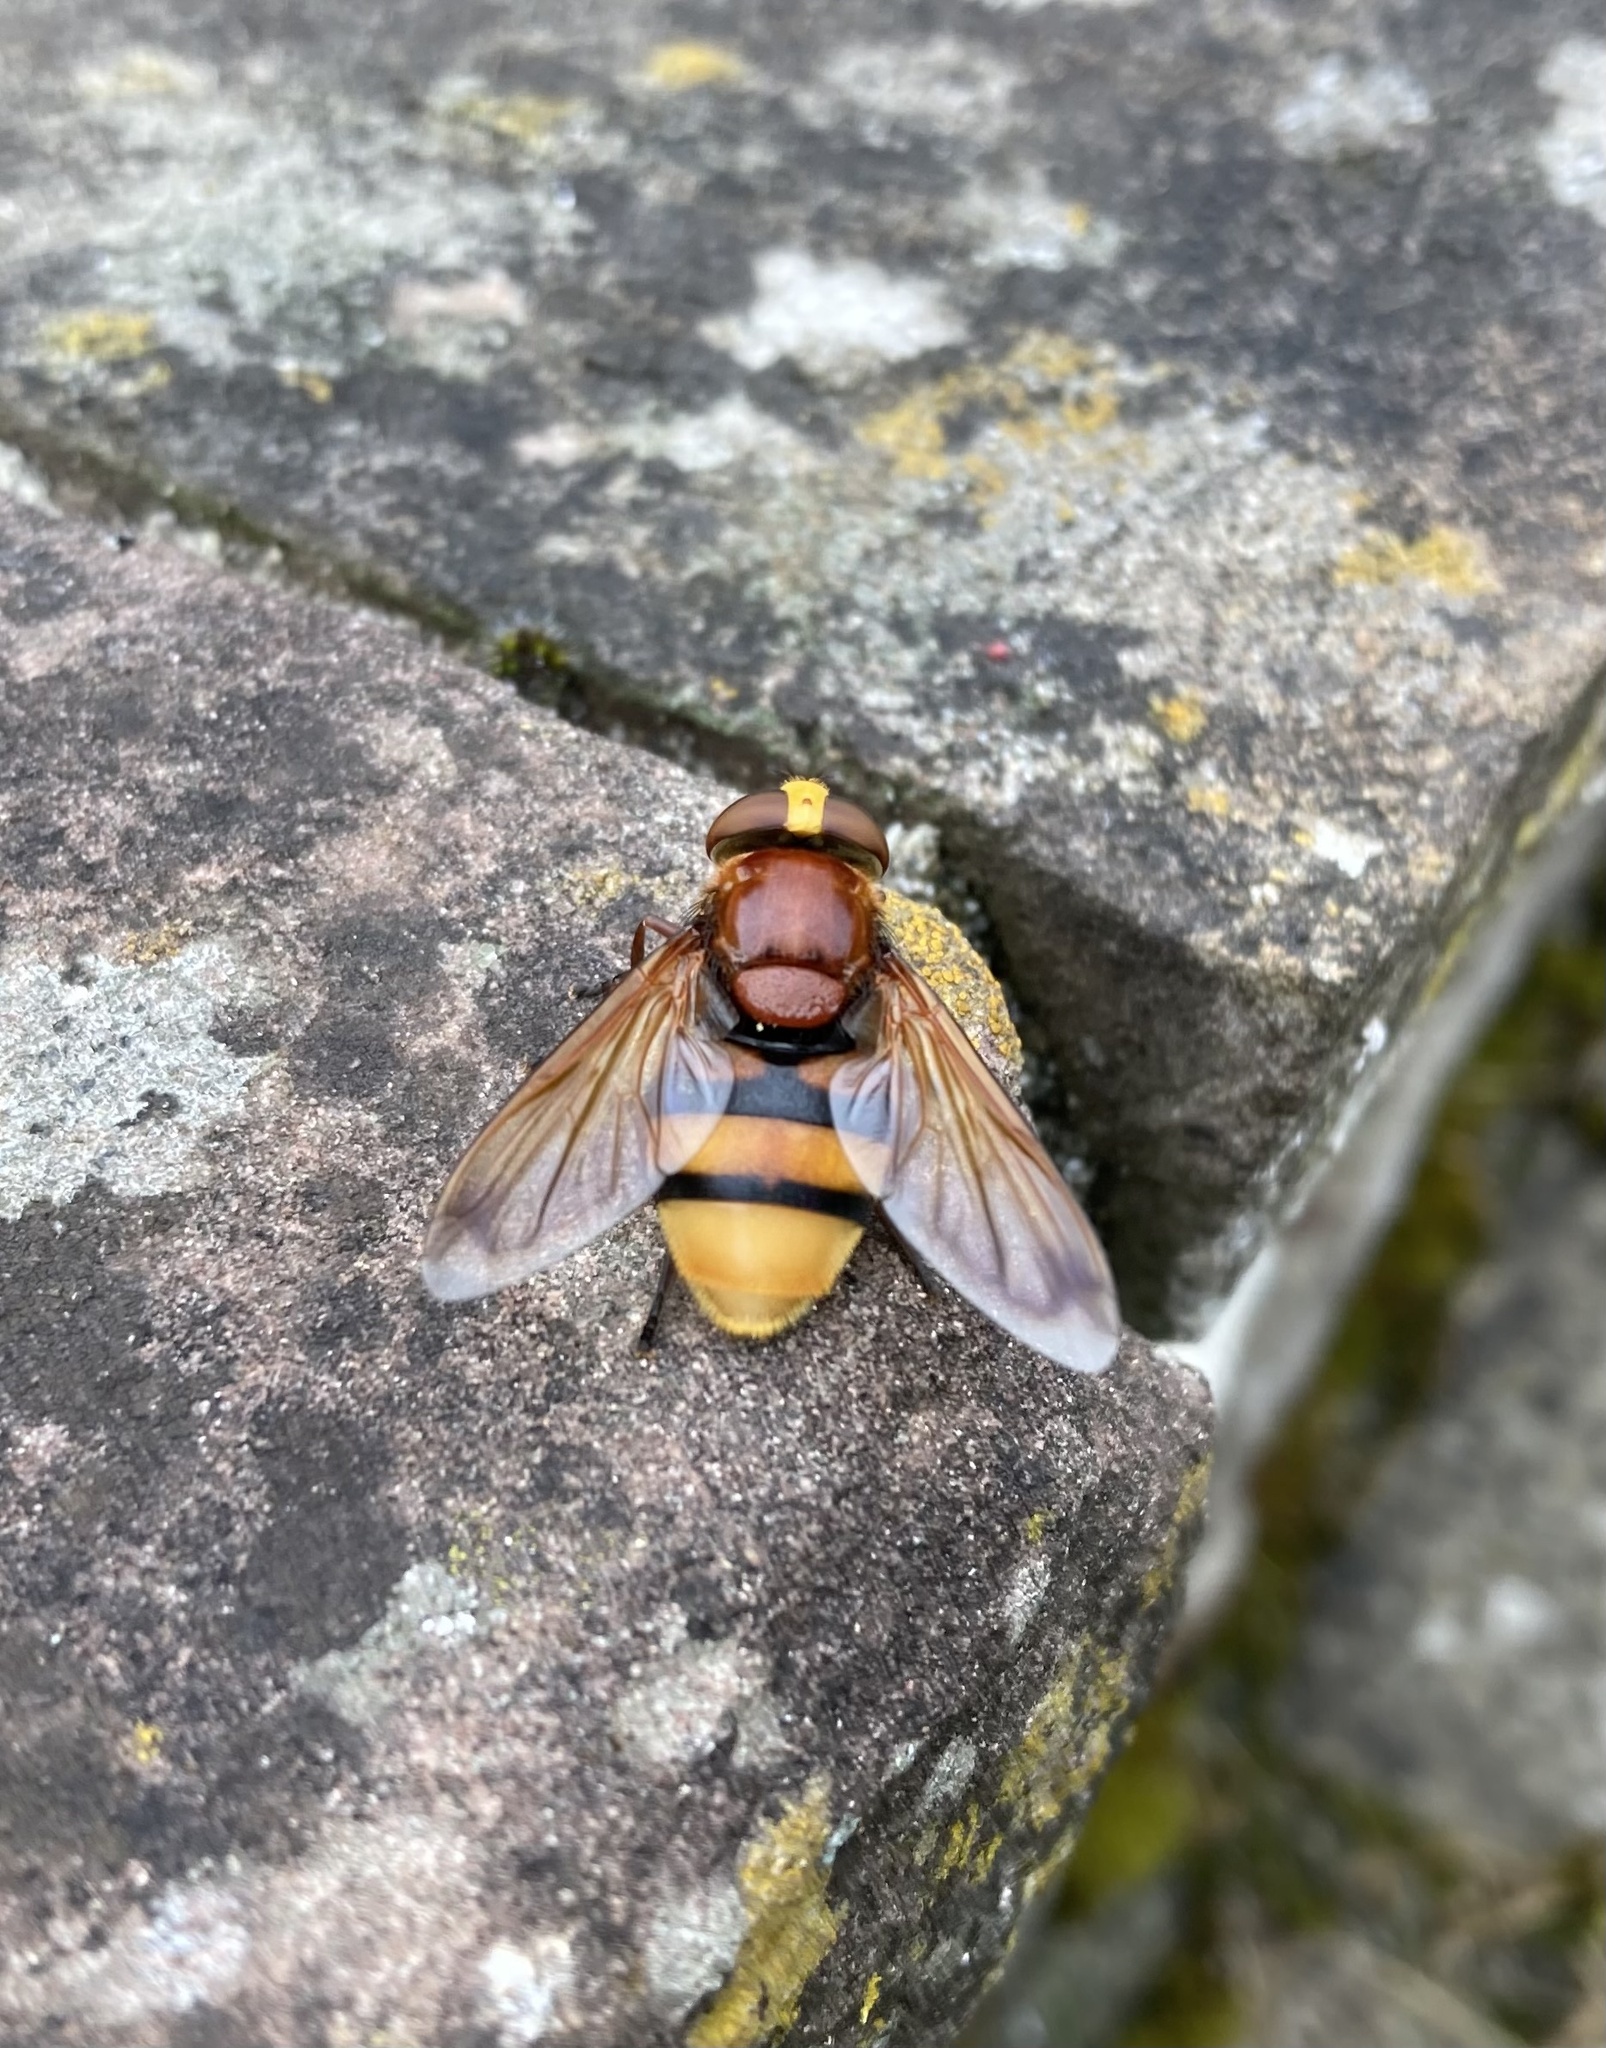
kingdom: Animalia
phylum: Arthropoda
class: Insecta
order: Diptera
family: Syrphidae
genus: Volucella
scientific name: Volucella zonaria
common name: Hornet hoverfly
